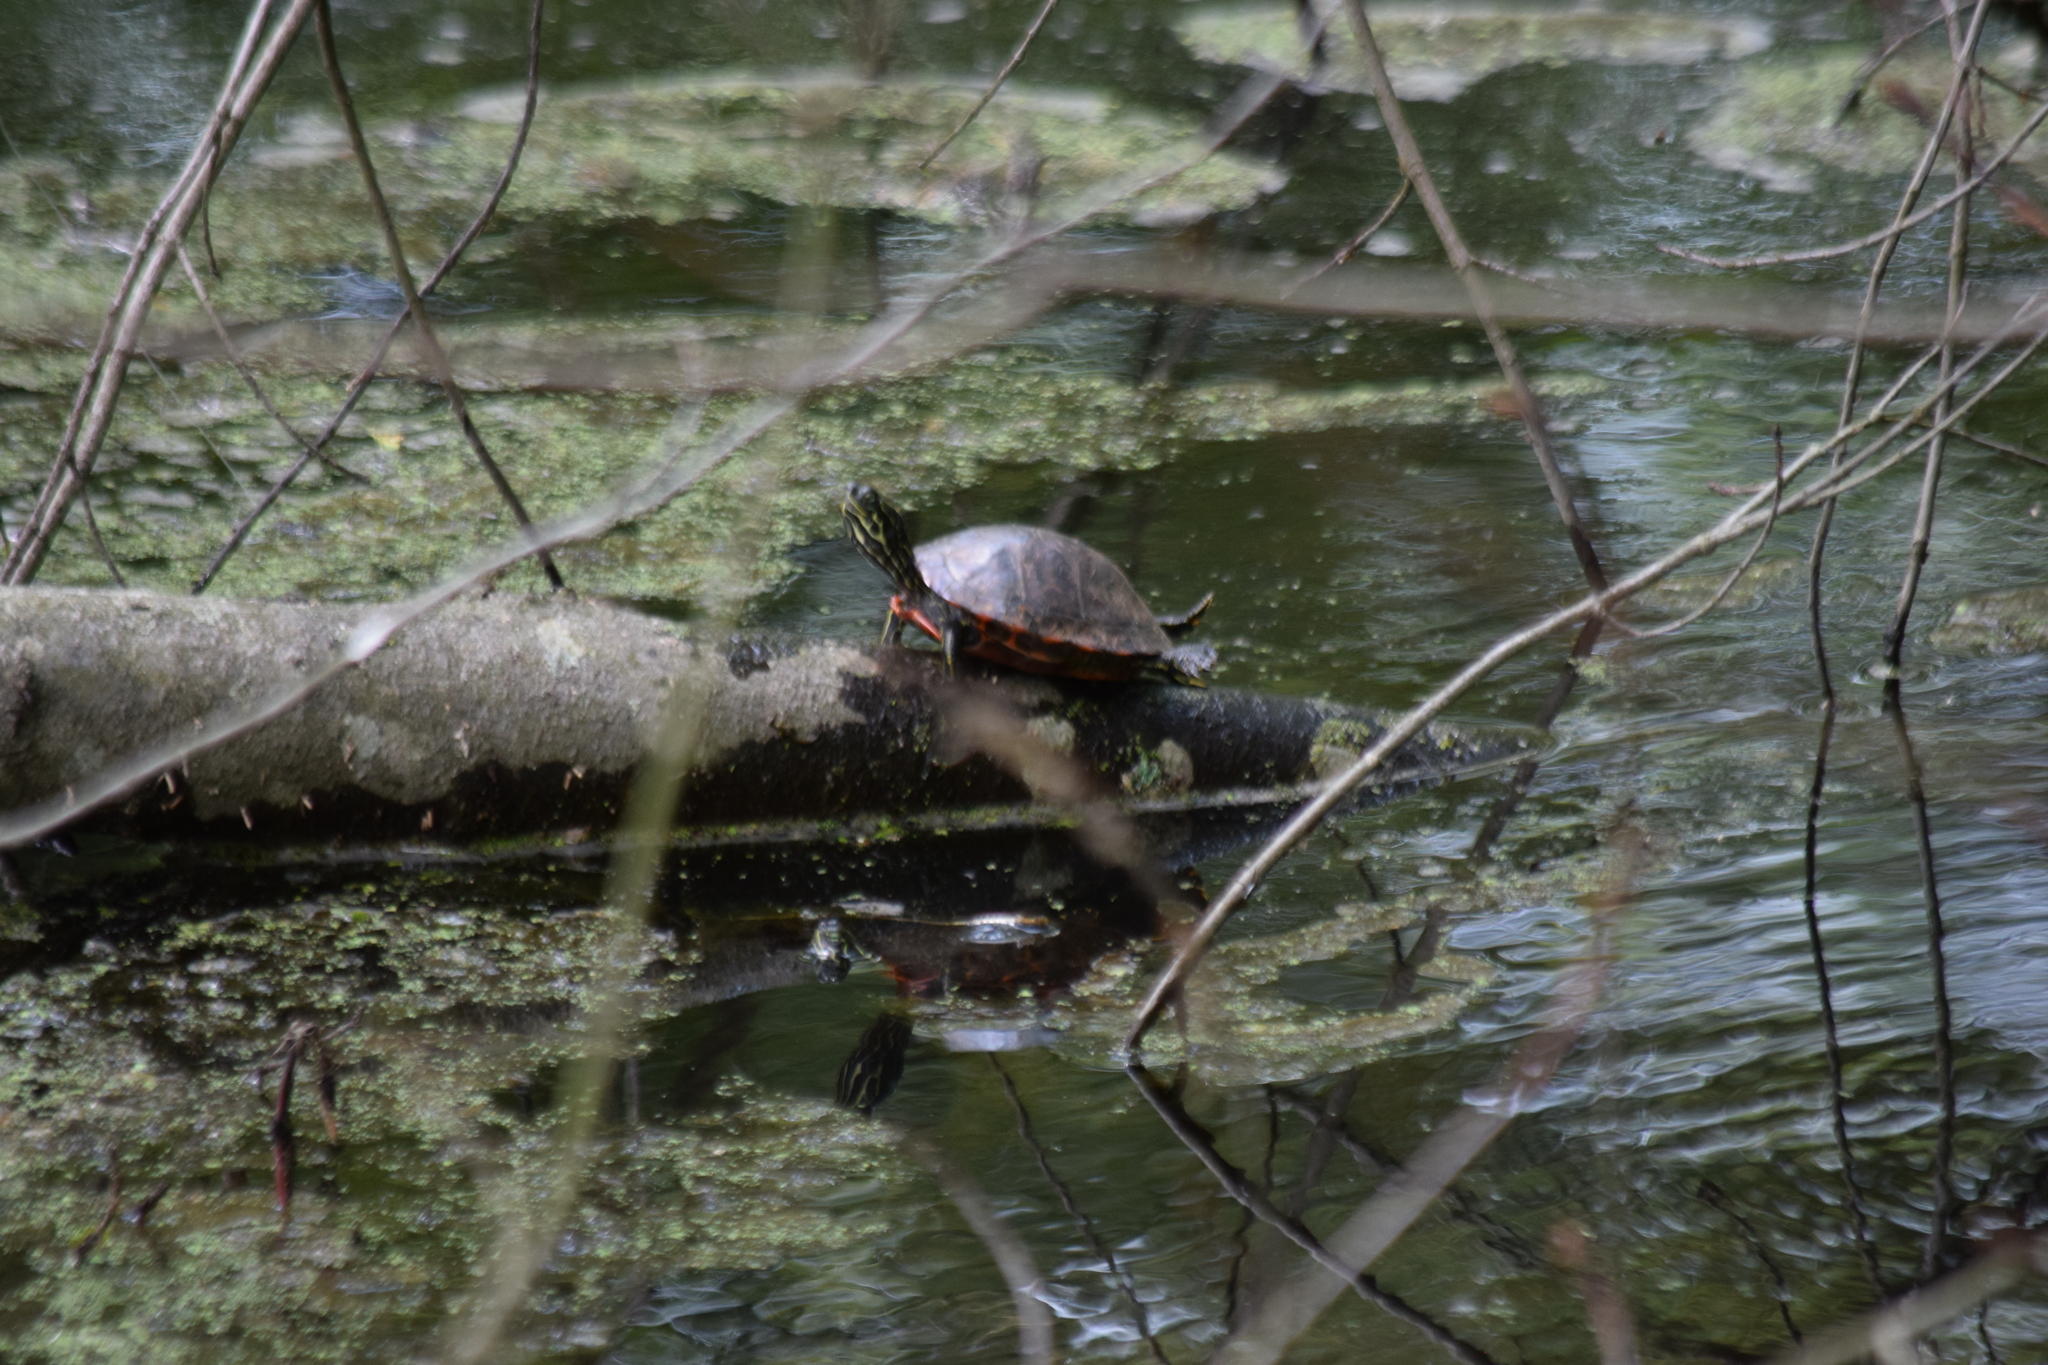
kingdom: Animalia
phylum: Chordata
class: Testudines
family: Emydidae
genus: Pseudemys
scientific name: Pseudemys rubriventris
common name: American red-bellied turtle
